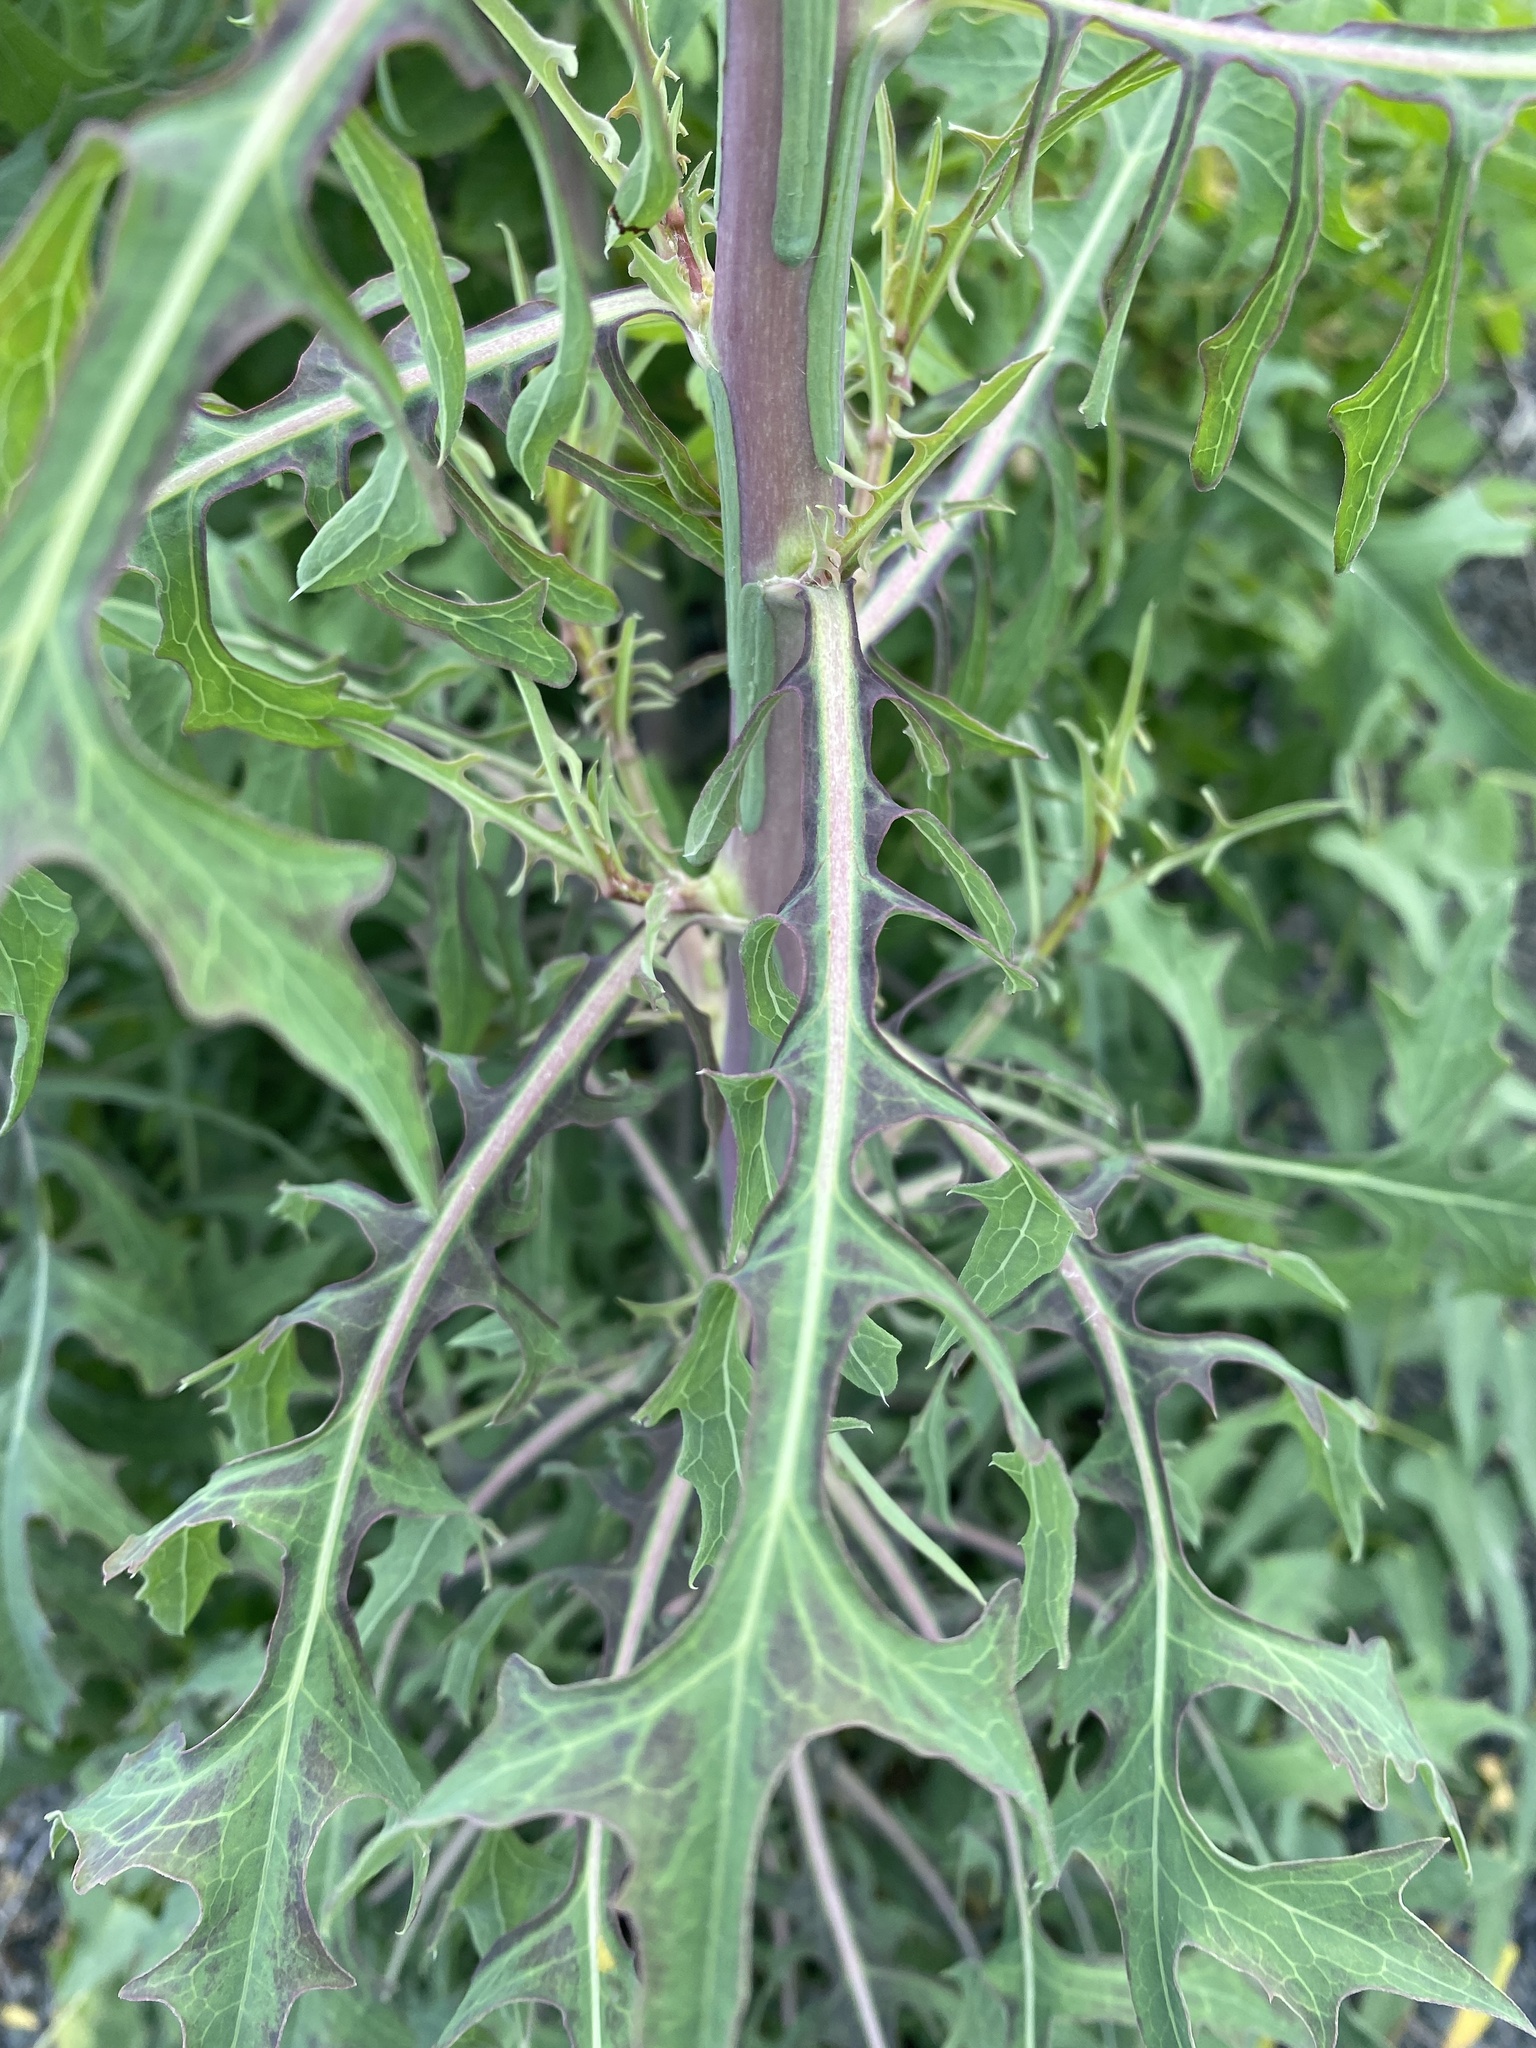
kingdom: Plantae
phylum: Tracheophyta
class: Magnoliopsida
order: Asterales
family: Asteraceae
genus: Lactuca
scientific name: Lactuca viminea
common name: Pliant lettuce
